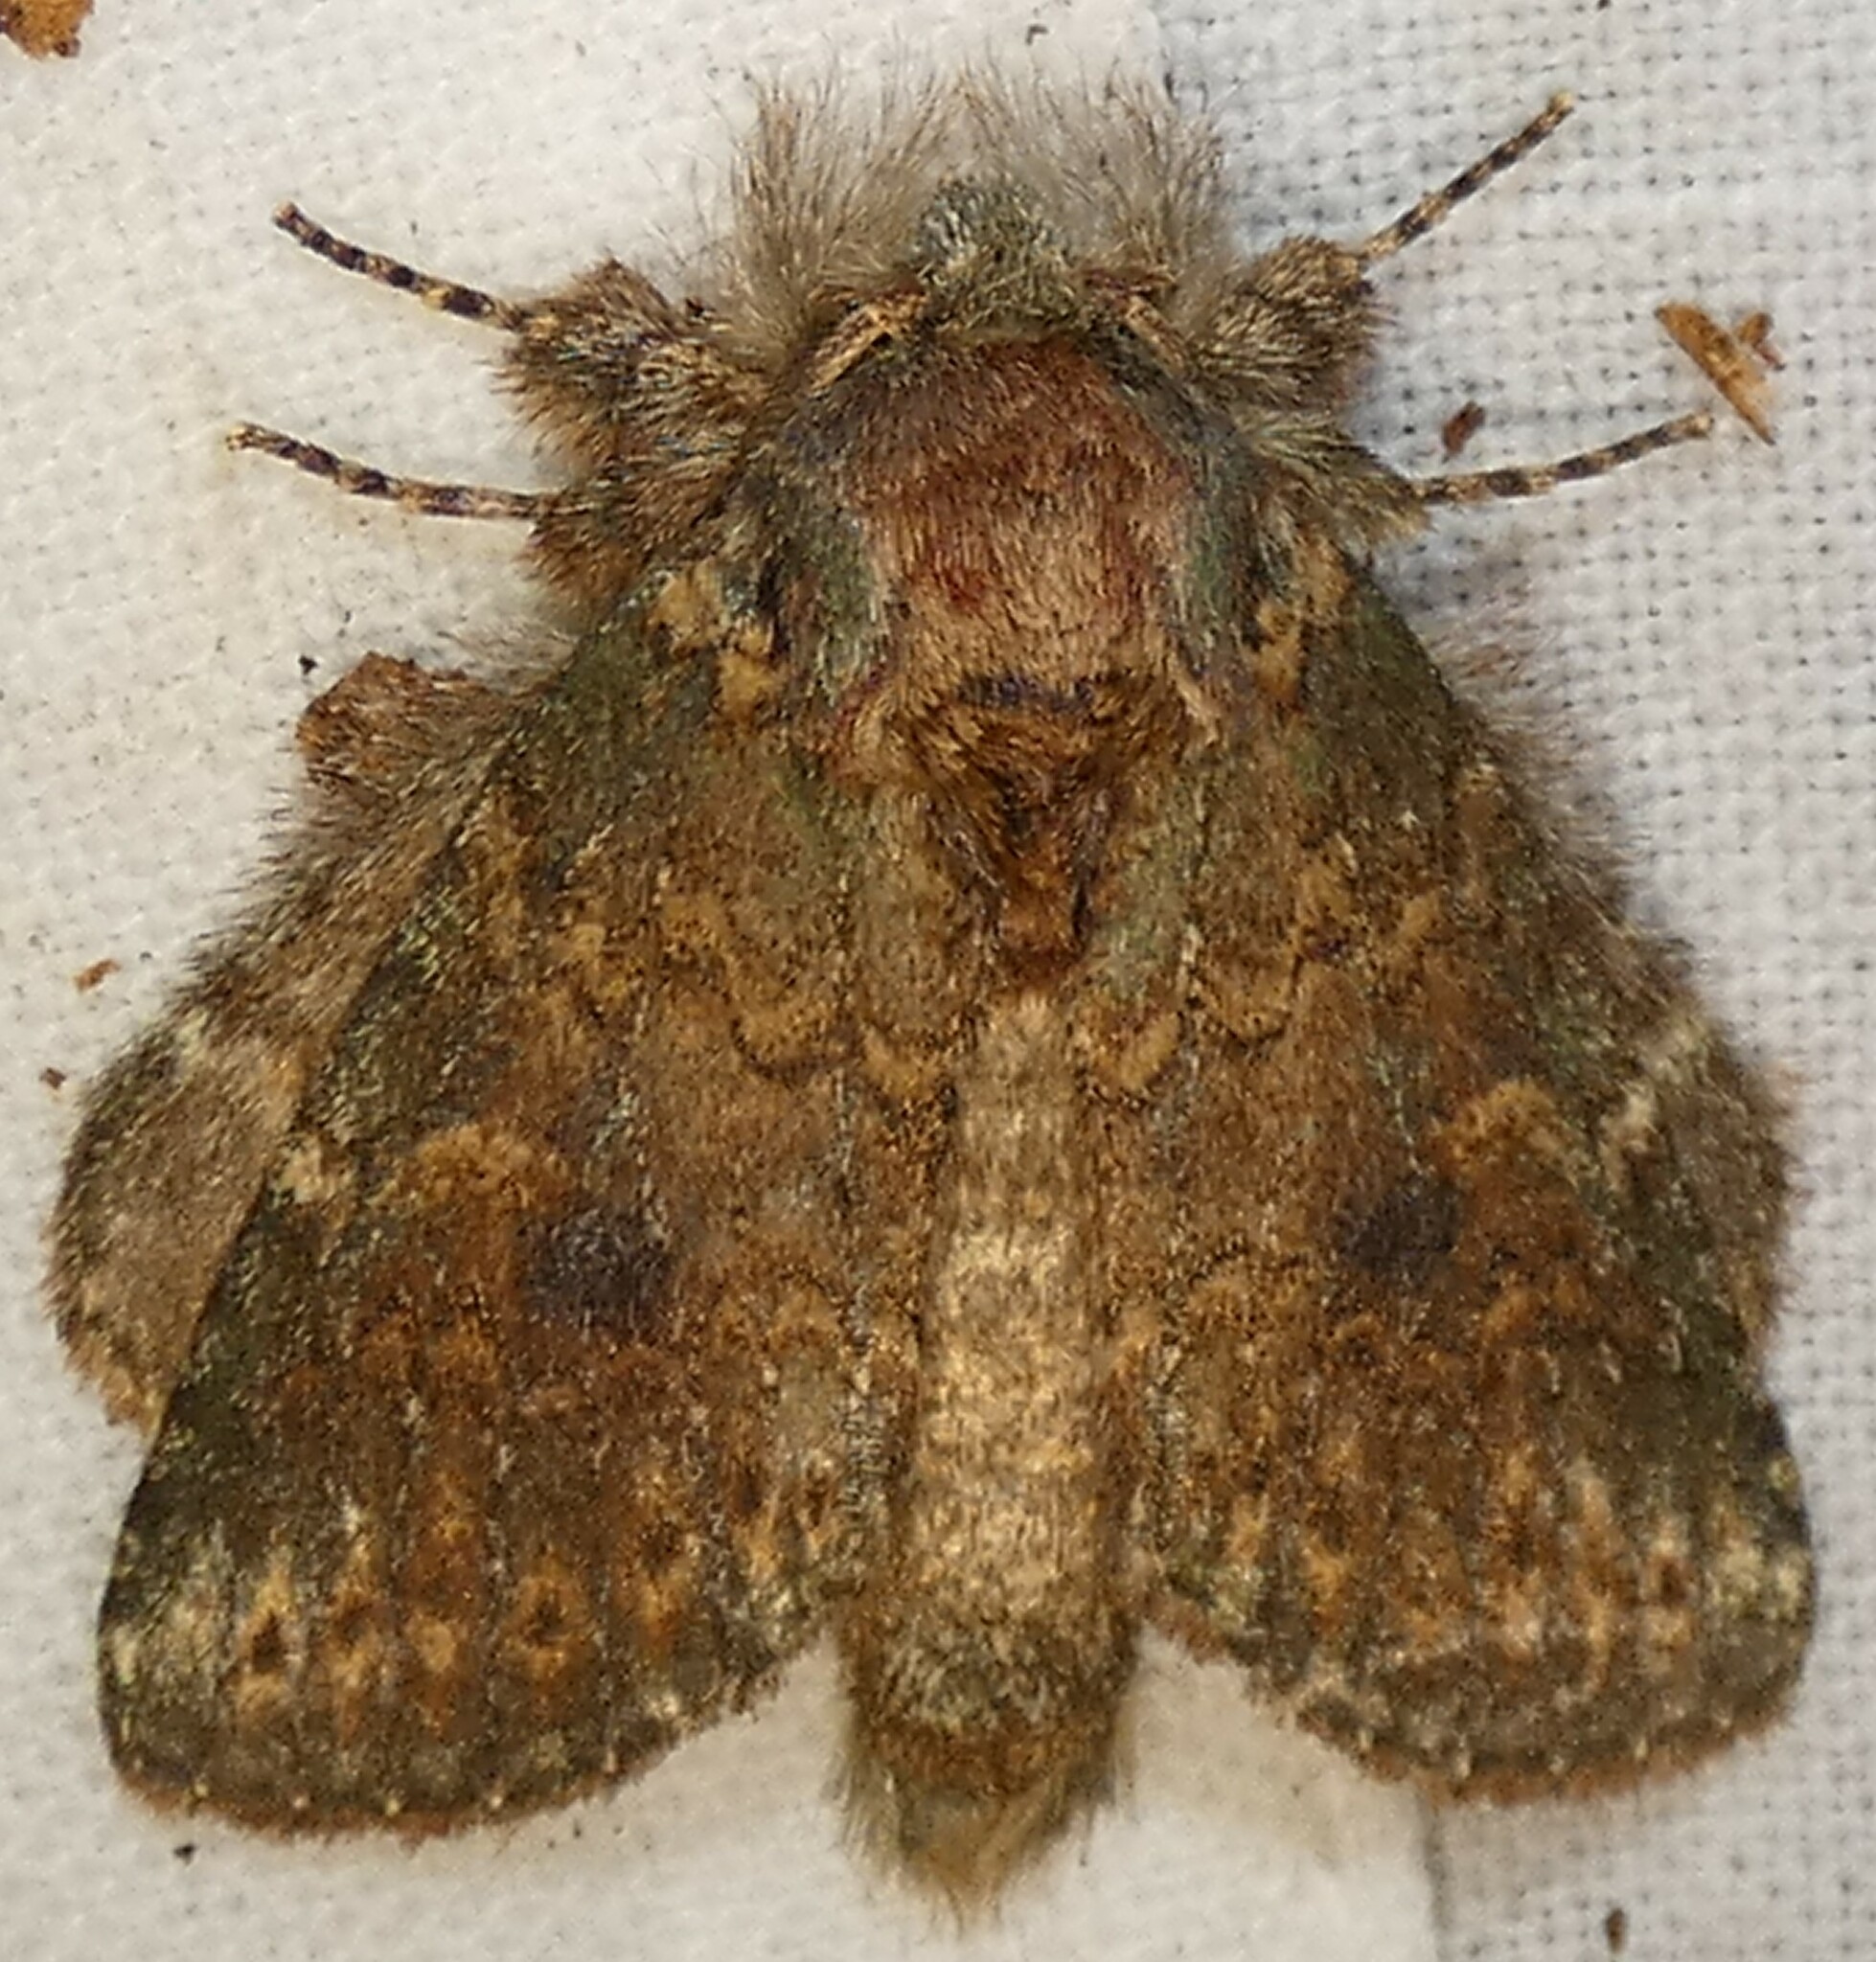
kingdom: Animalia
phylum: Arthropoda
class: Insecta
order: Lepidoptera
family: Notodontidae
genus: Disphragis
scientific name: Disphragis Cecrita biundata
